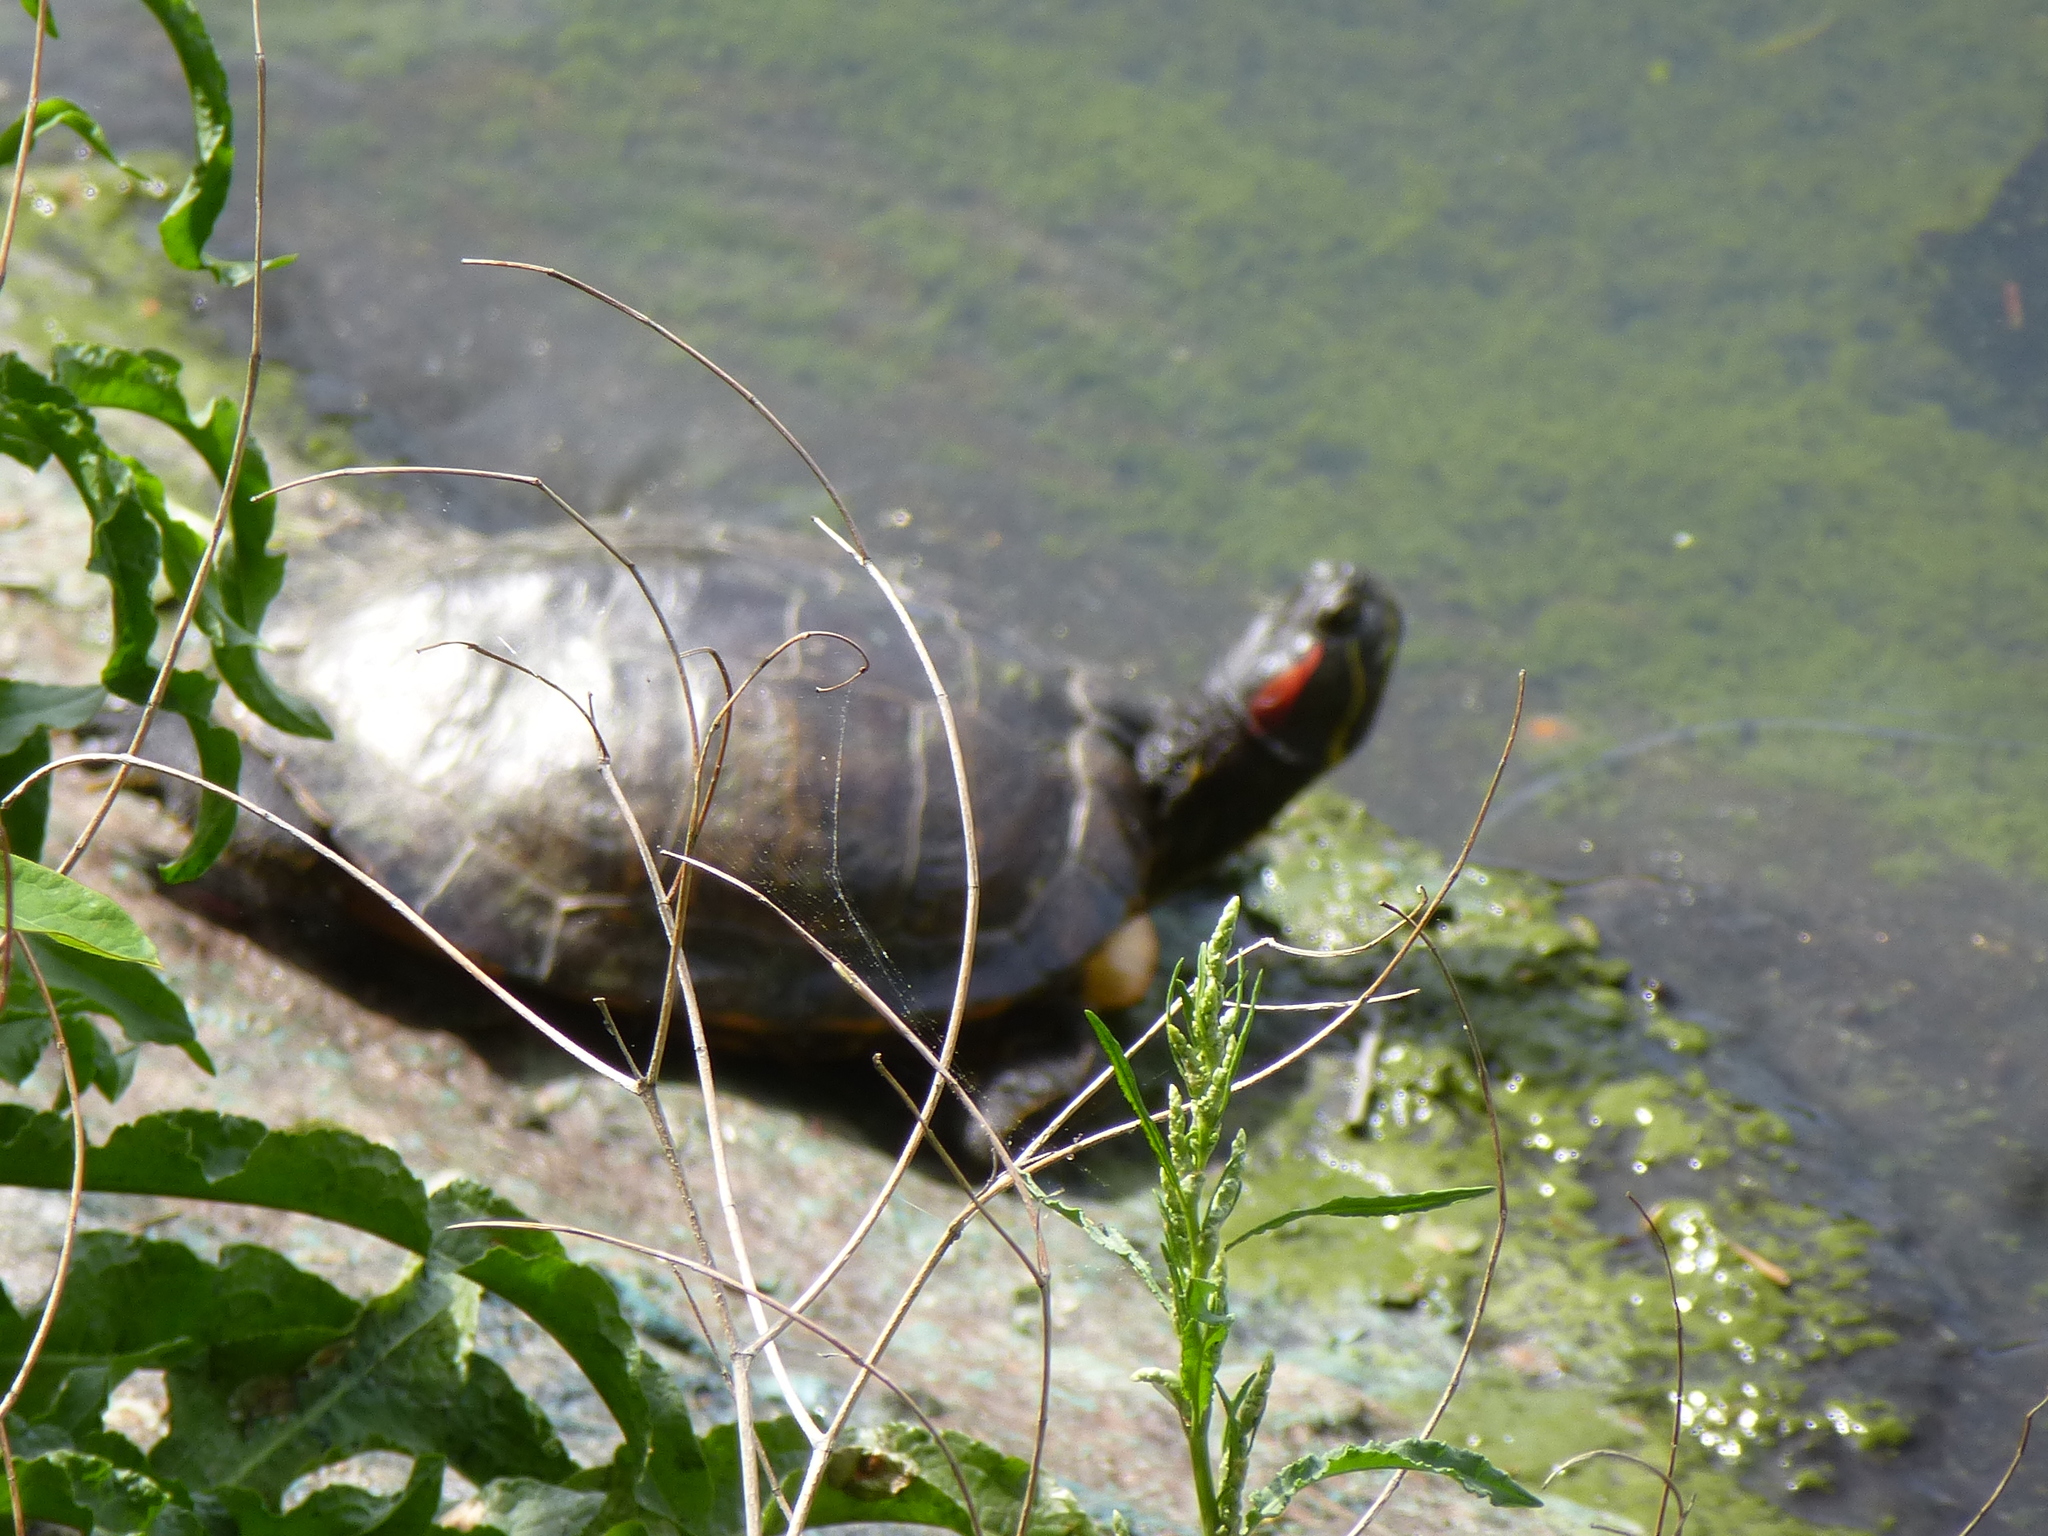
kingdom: Animalia
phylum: Chordata
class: Testudines
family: Emydidae
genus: Trachemys
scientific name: Trachemys scripta
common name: Slider
